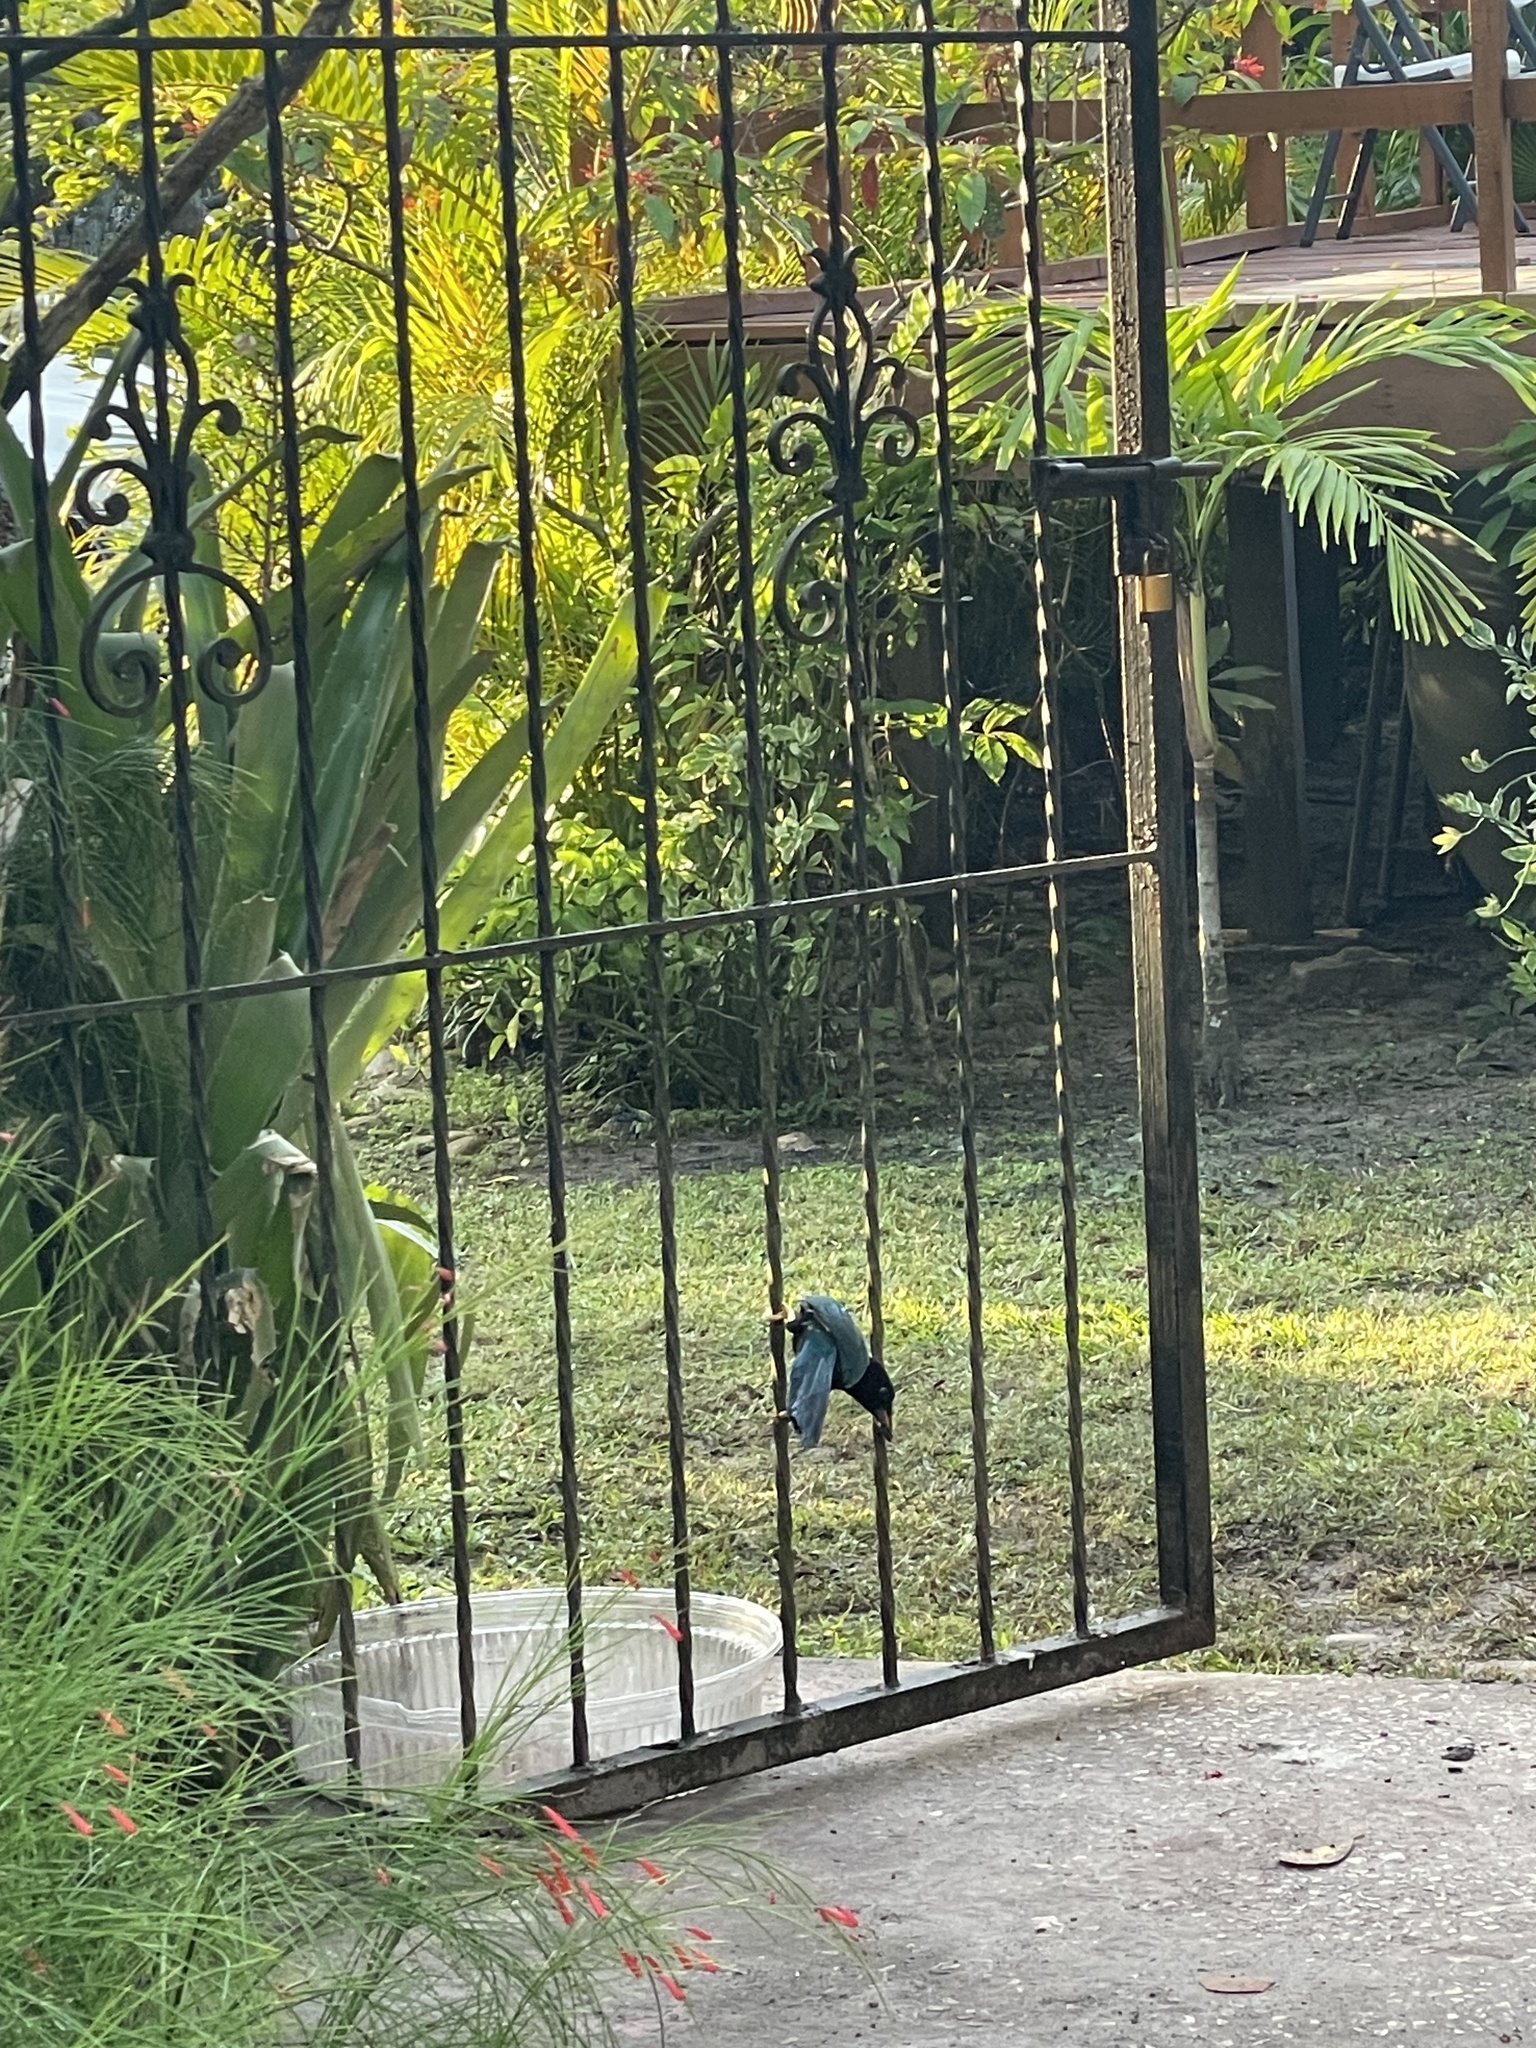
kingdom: Animalia
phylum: Chordata
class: Aves
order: Passeriformes
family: Corvidae
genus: Cyanocorax
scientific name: Cyanocorax yucatanicus
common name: Yucatan jay
